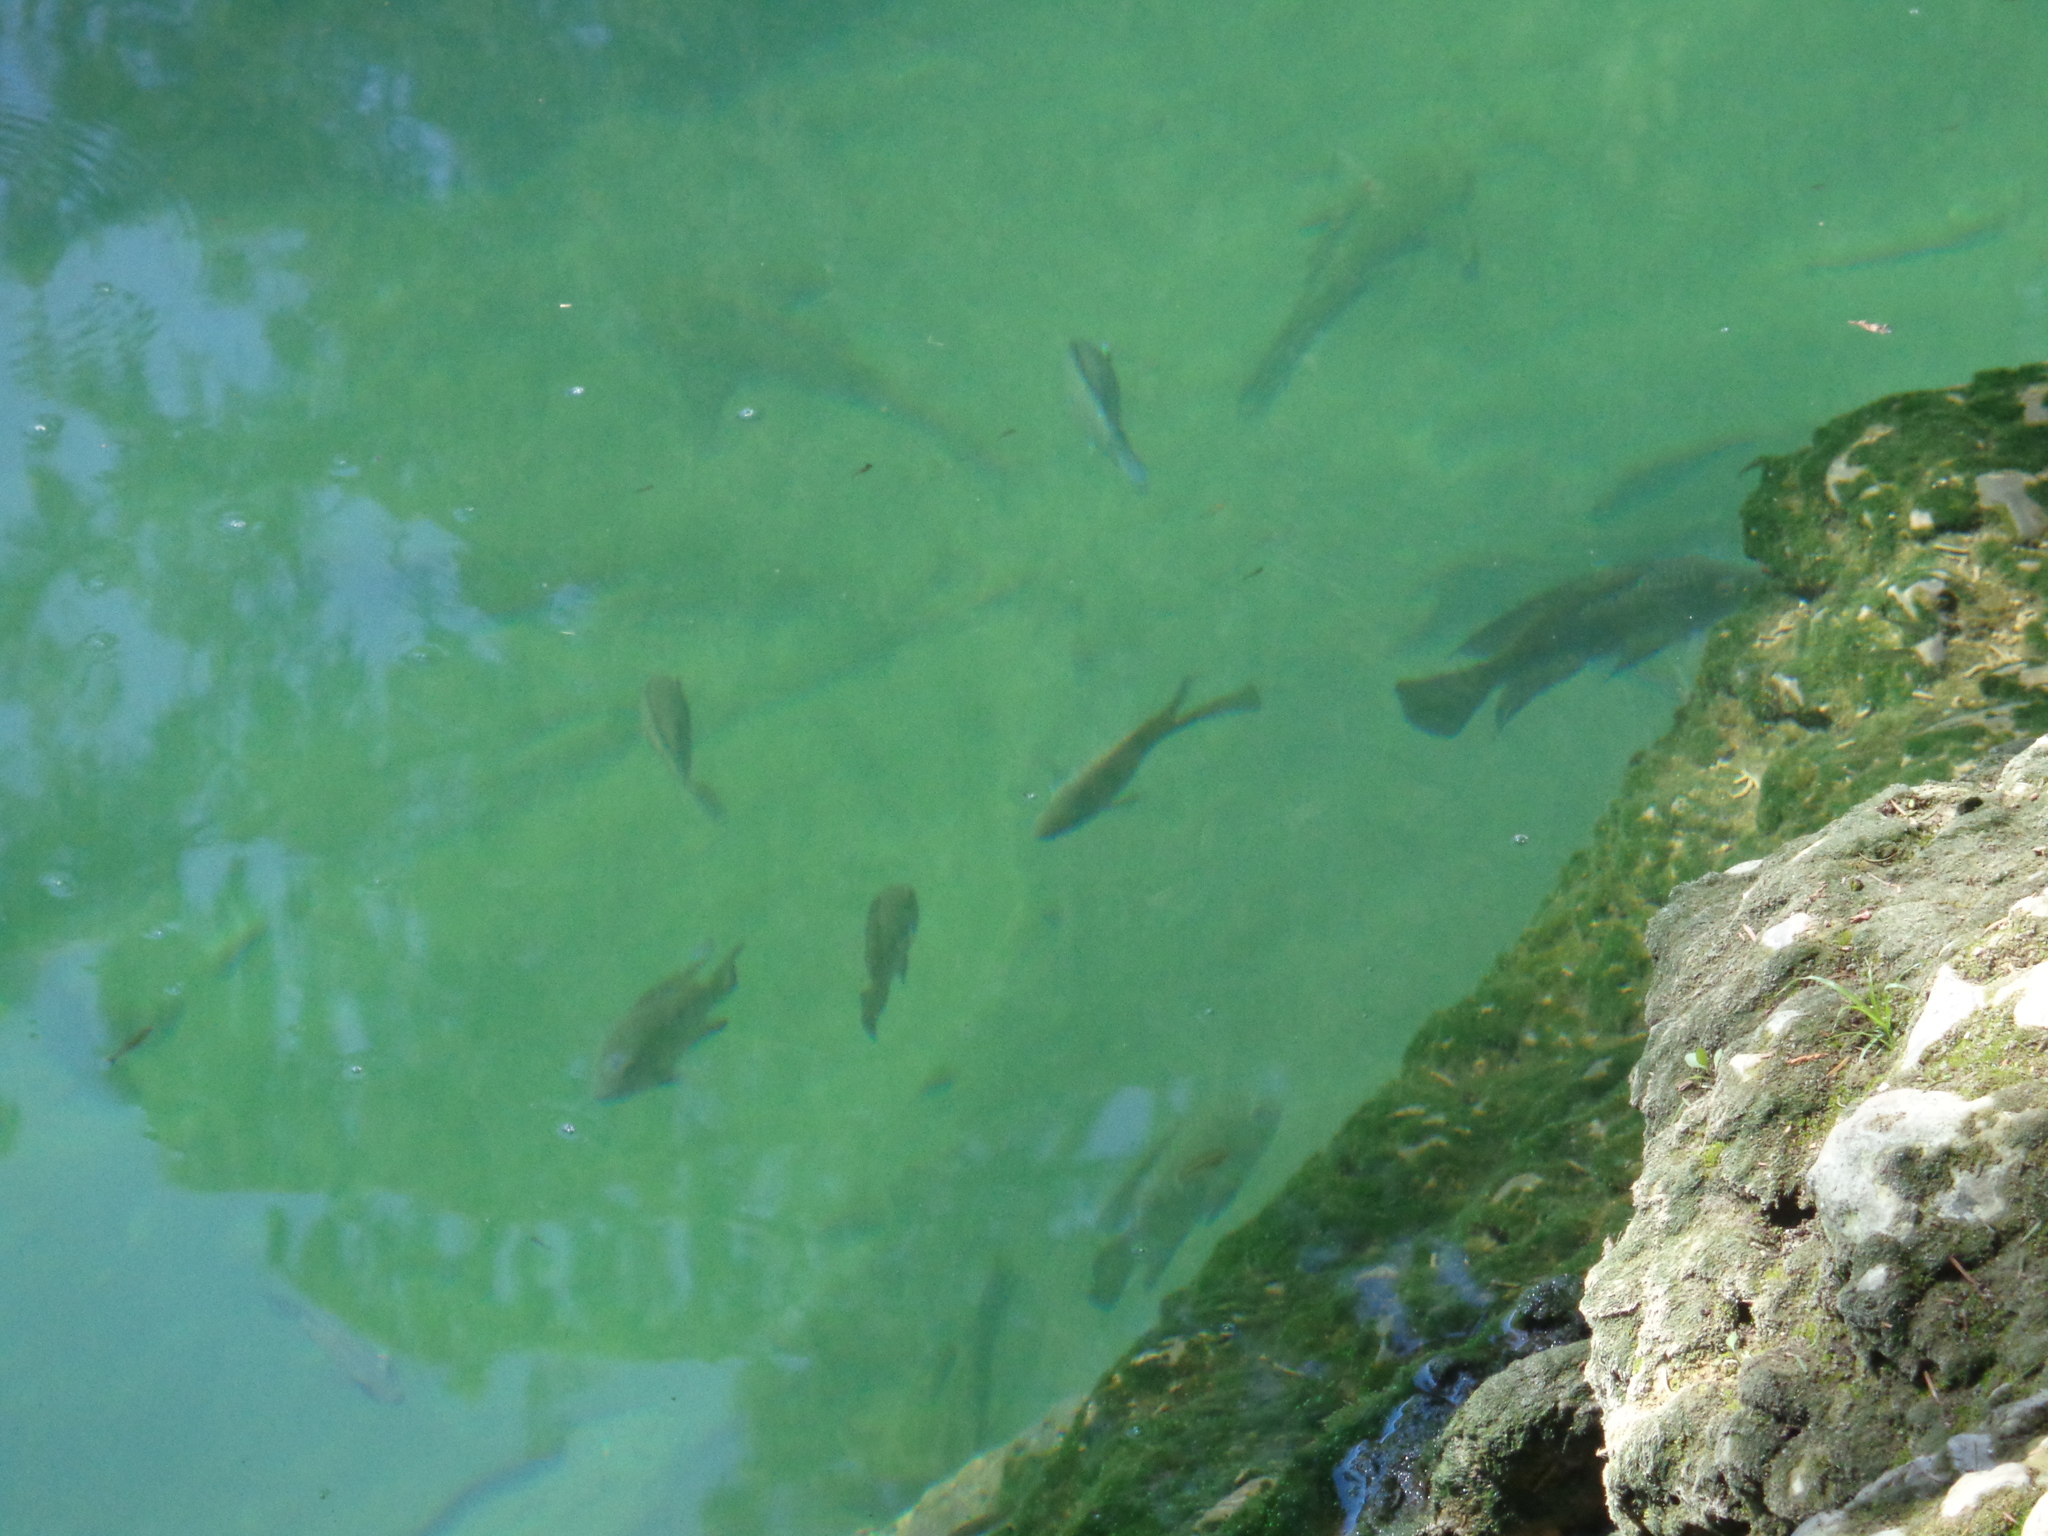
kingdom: Animalia
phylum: Chordata
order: Perciformes
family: Cichlidae
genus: Herichthys
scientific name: Herichthys cyanoguttatus
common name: Rio grande cichlid
